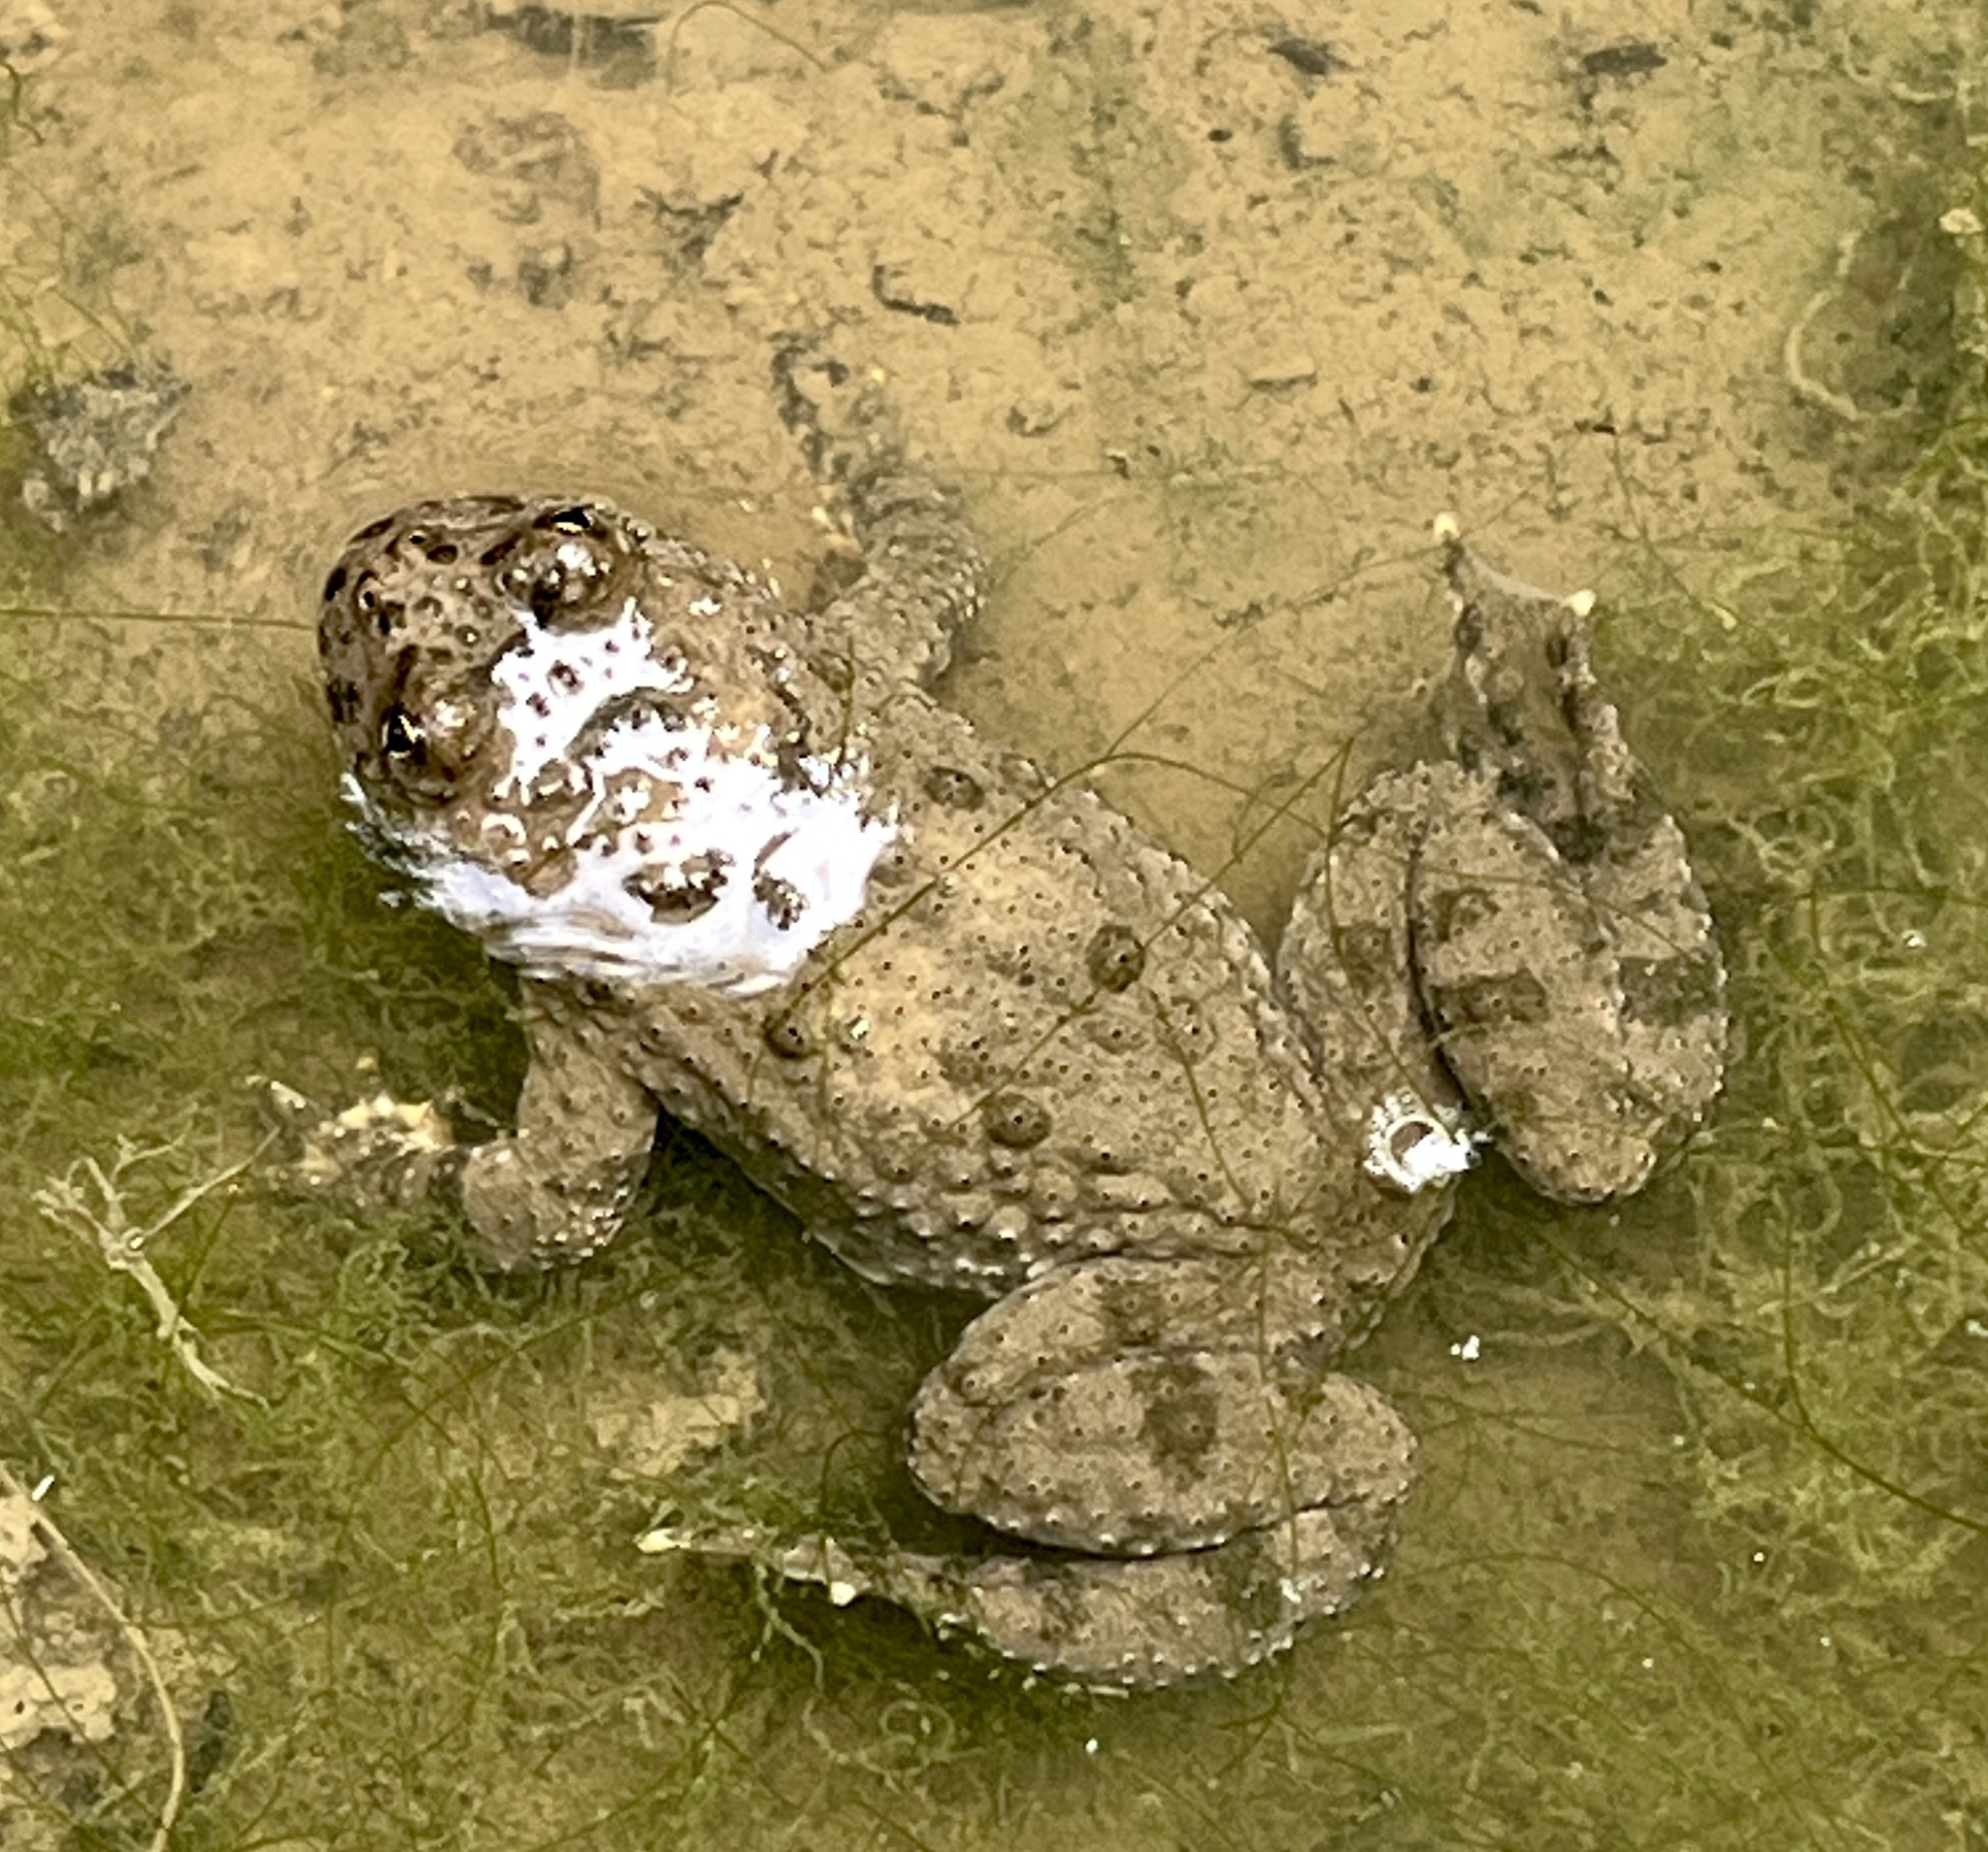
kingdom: Animalia
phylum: Chordata
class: Amphibia
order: Anura
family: Bombinatoridae
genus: Bombina
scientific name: Bombina variegata
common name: Yellow-bellied toad
